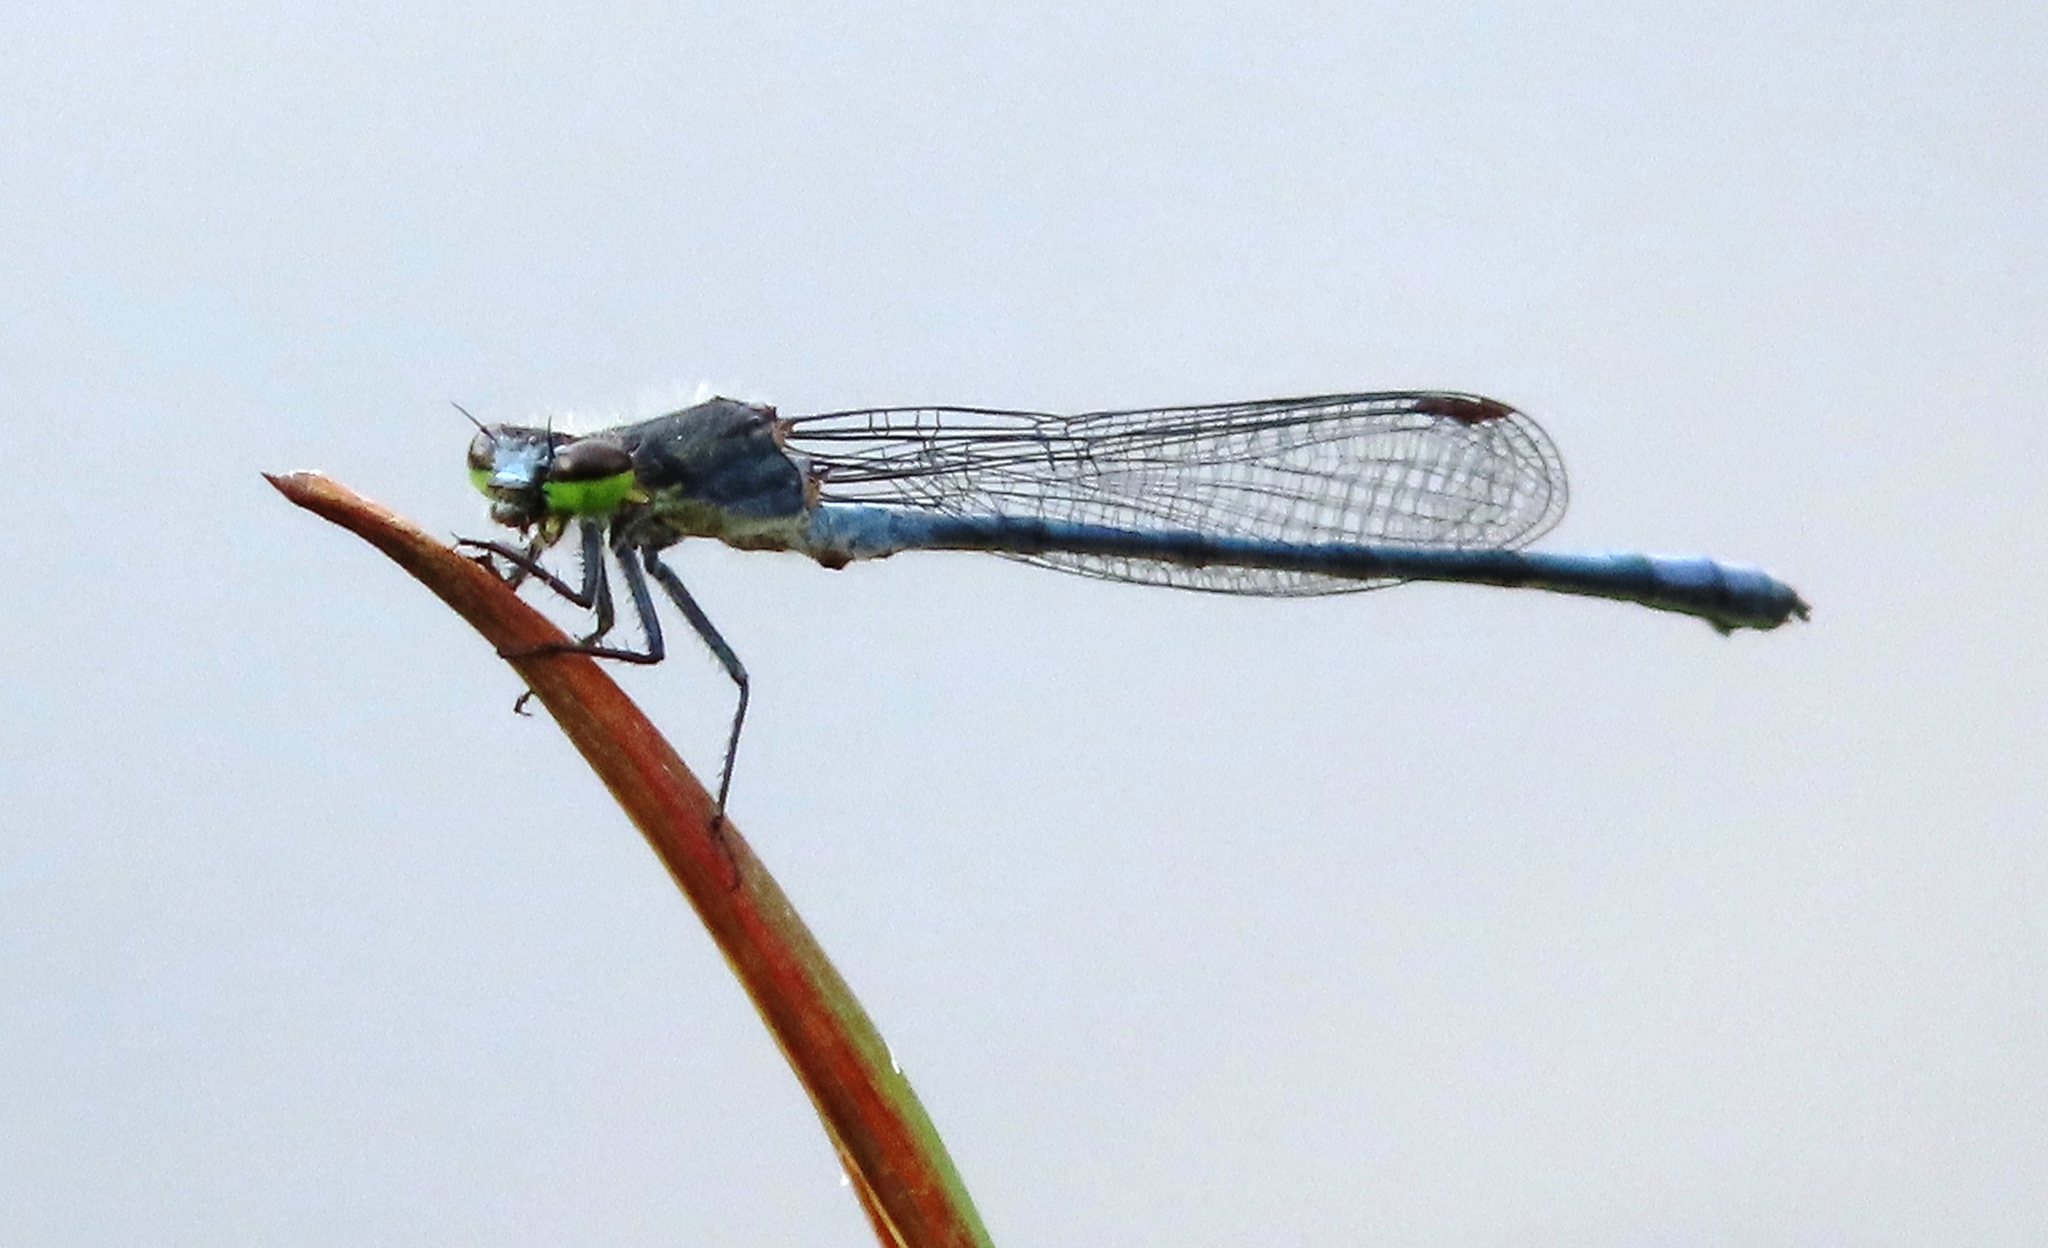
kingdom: Animalia
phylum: Arthropoda
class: Insecta
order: Odonata
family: Coenagrionidae
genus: Pseudagrion
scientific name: Pseudagrion draconis
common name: Mountain sprite
